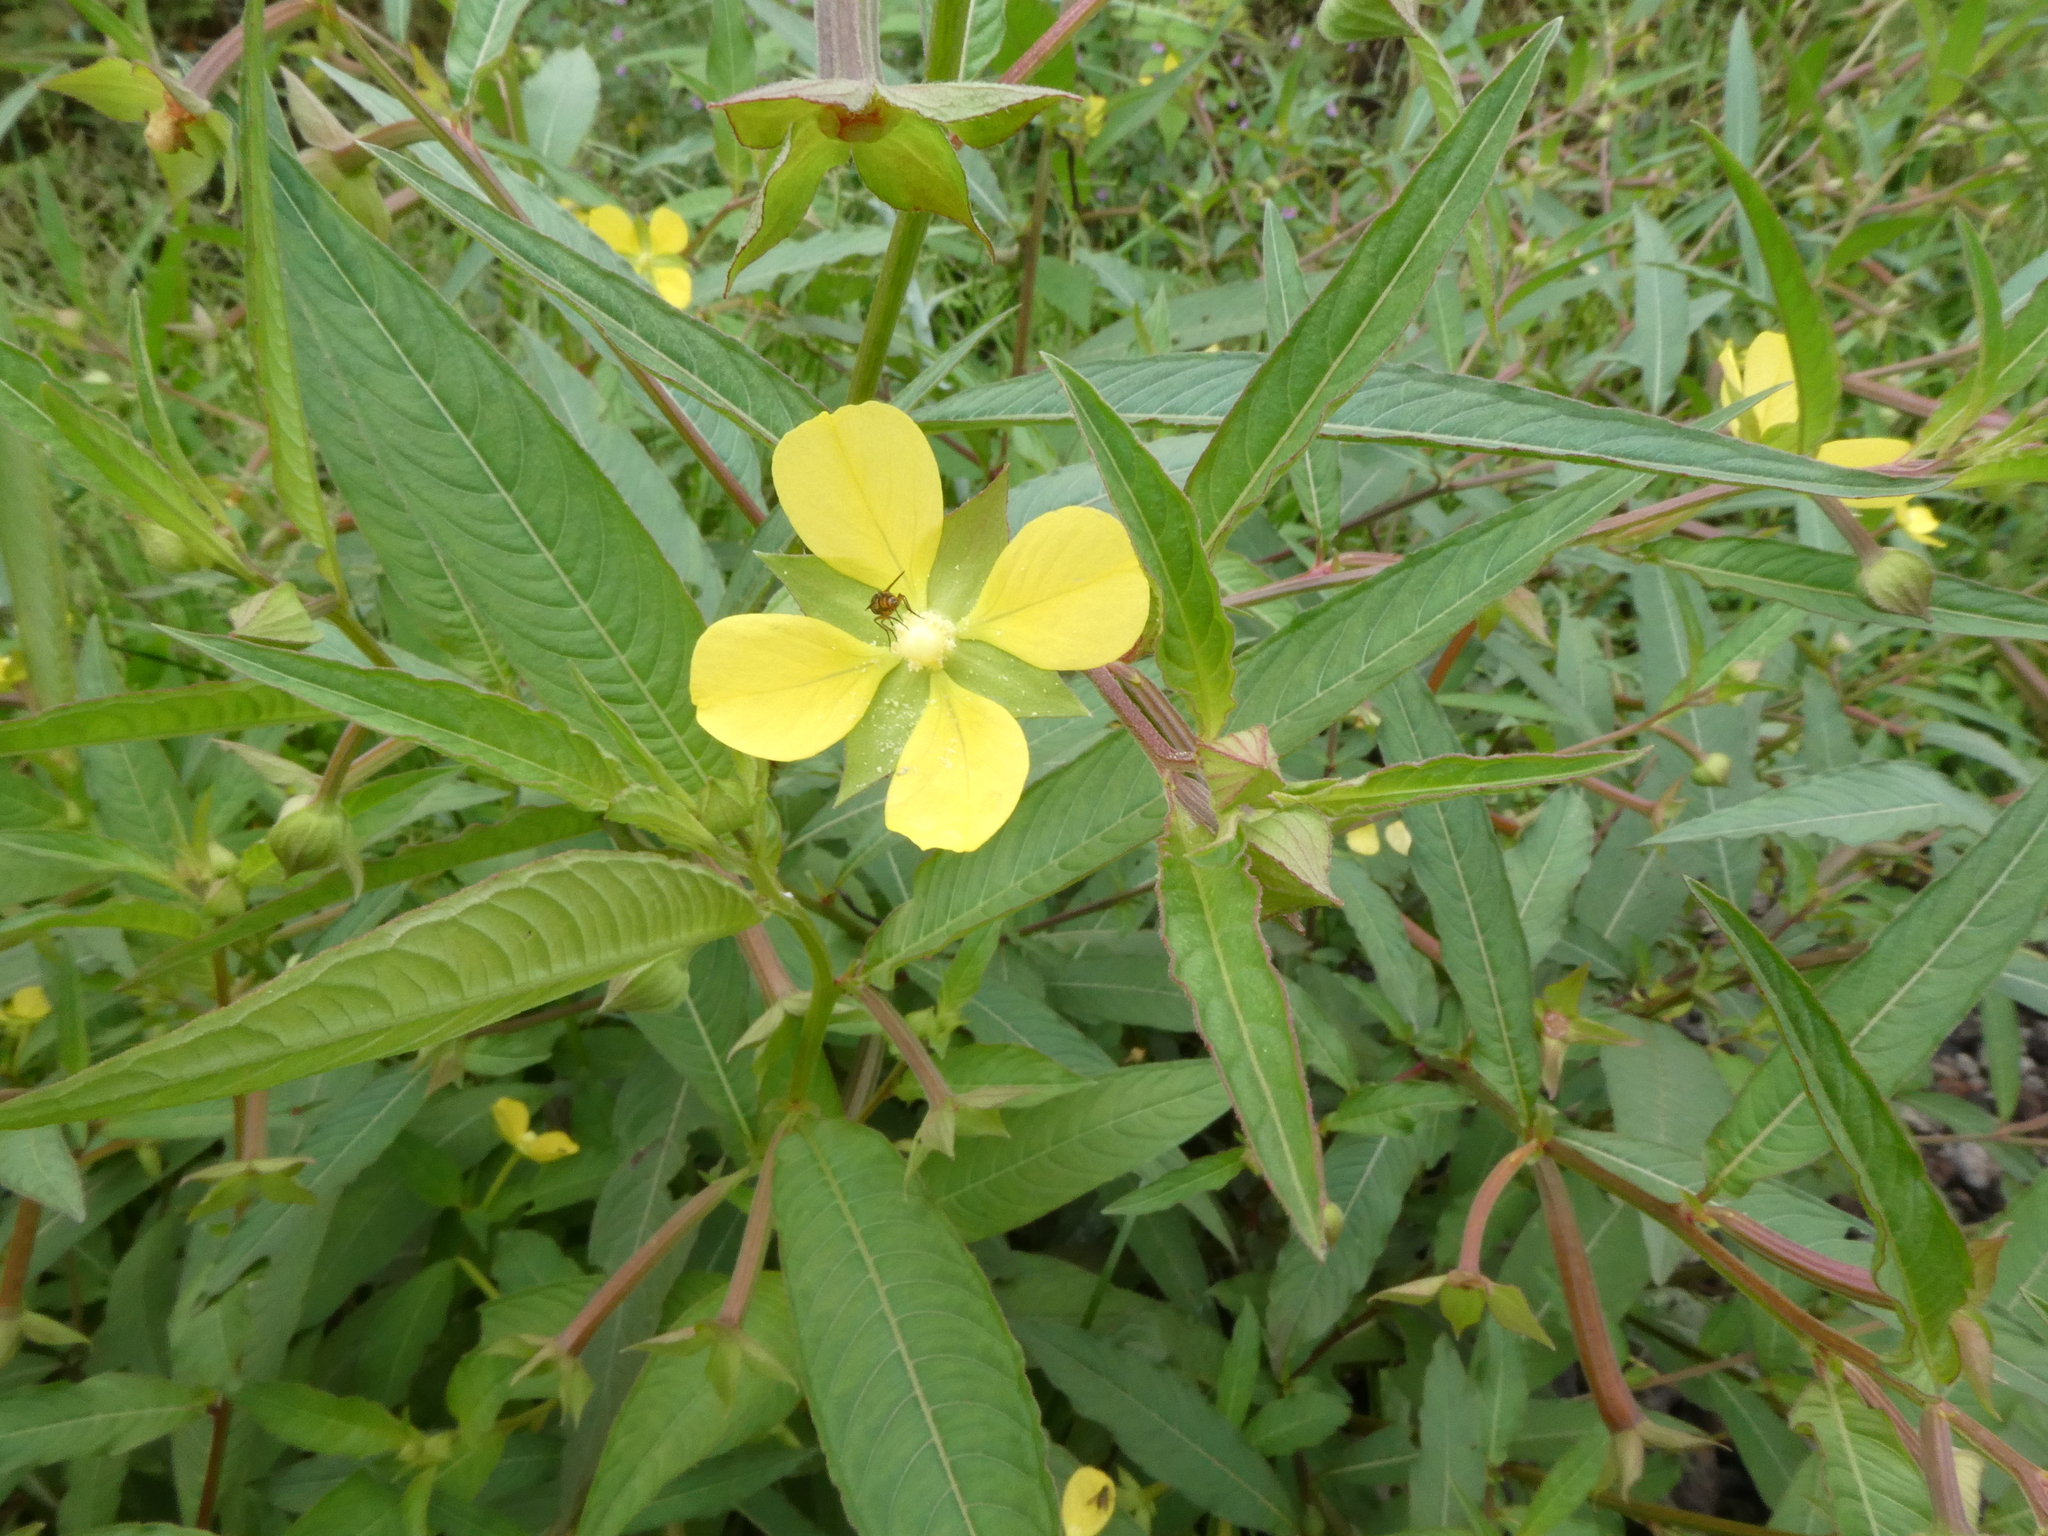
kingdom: Plantae
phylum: Tracheophyta
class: Magnoliopsida
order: Myrtales
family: Onagraceae
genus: Ludwigia
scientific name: Ludwigia octovalvis
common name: Water-primrose
